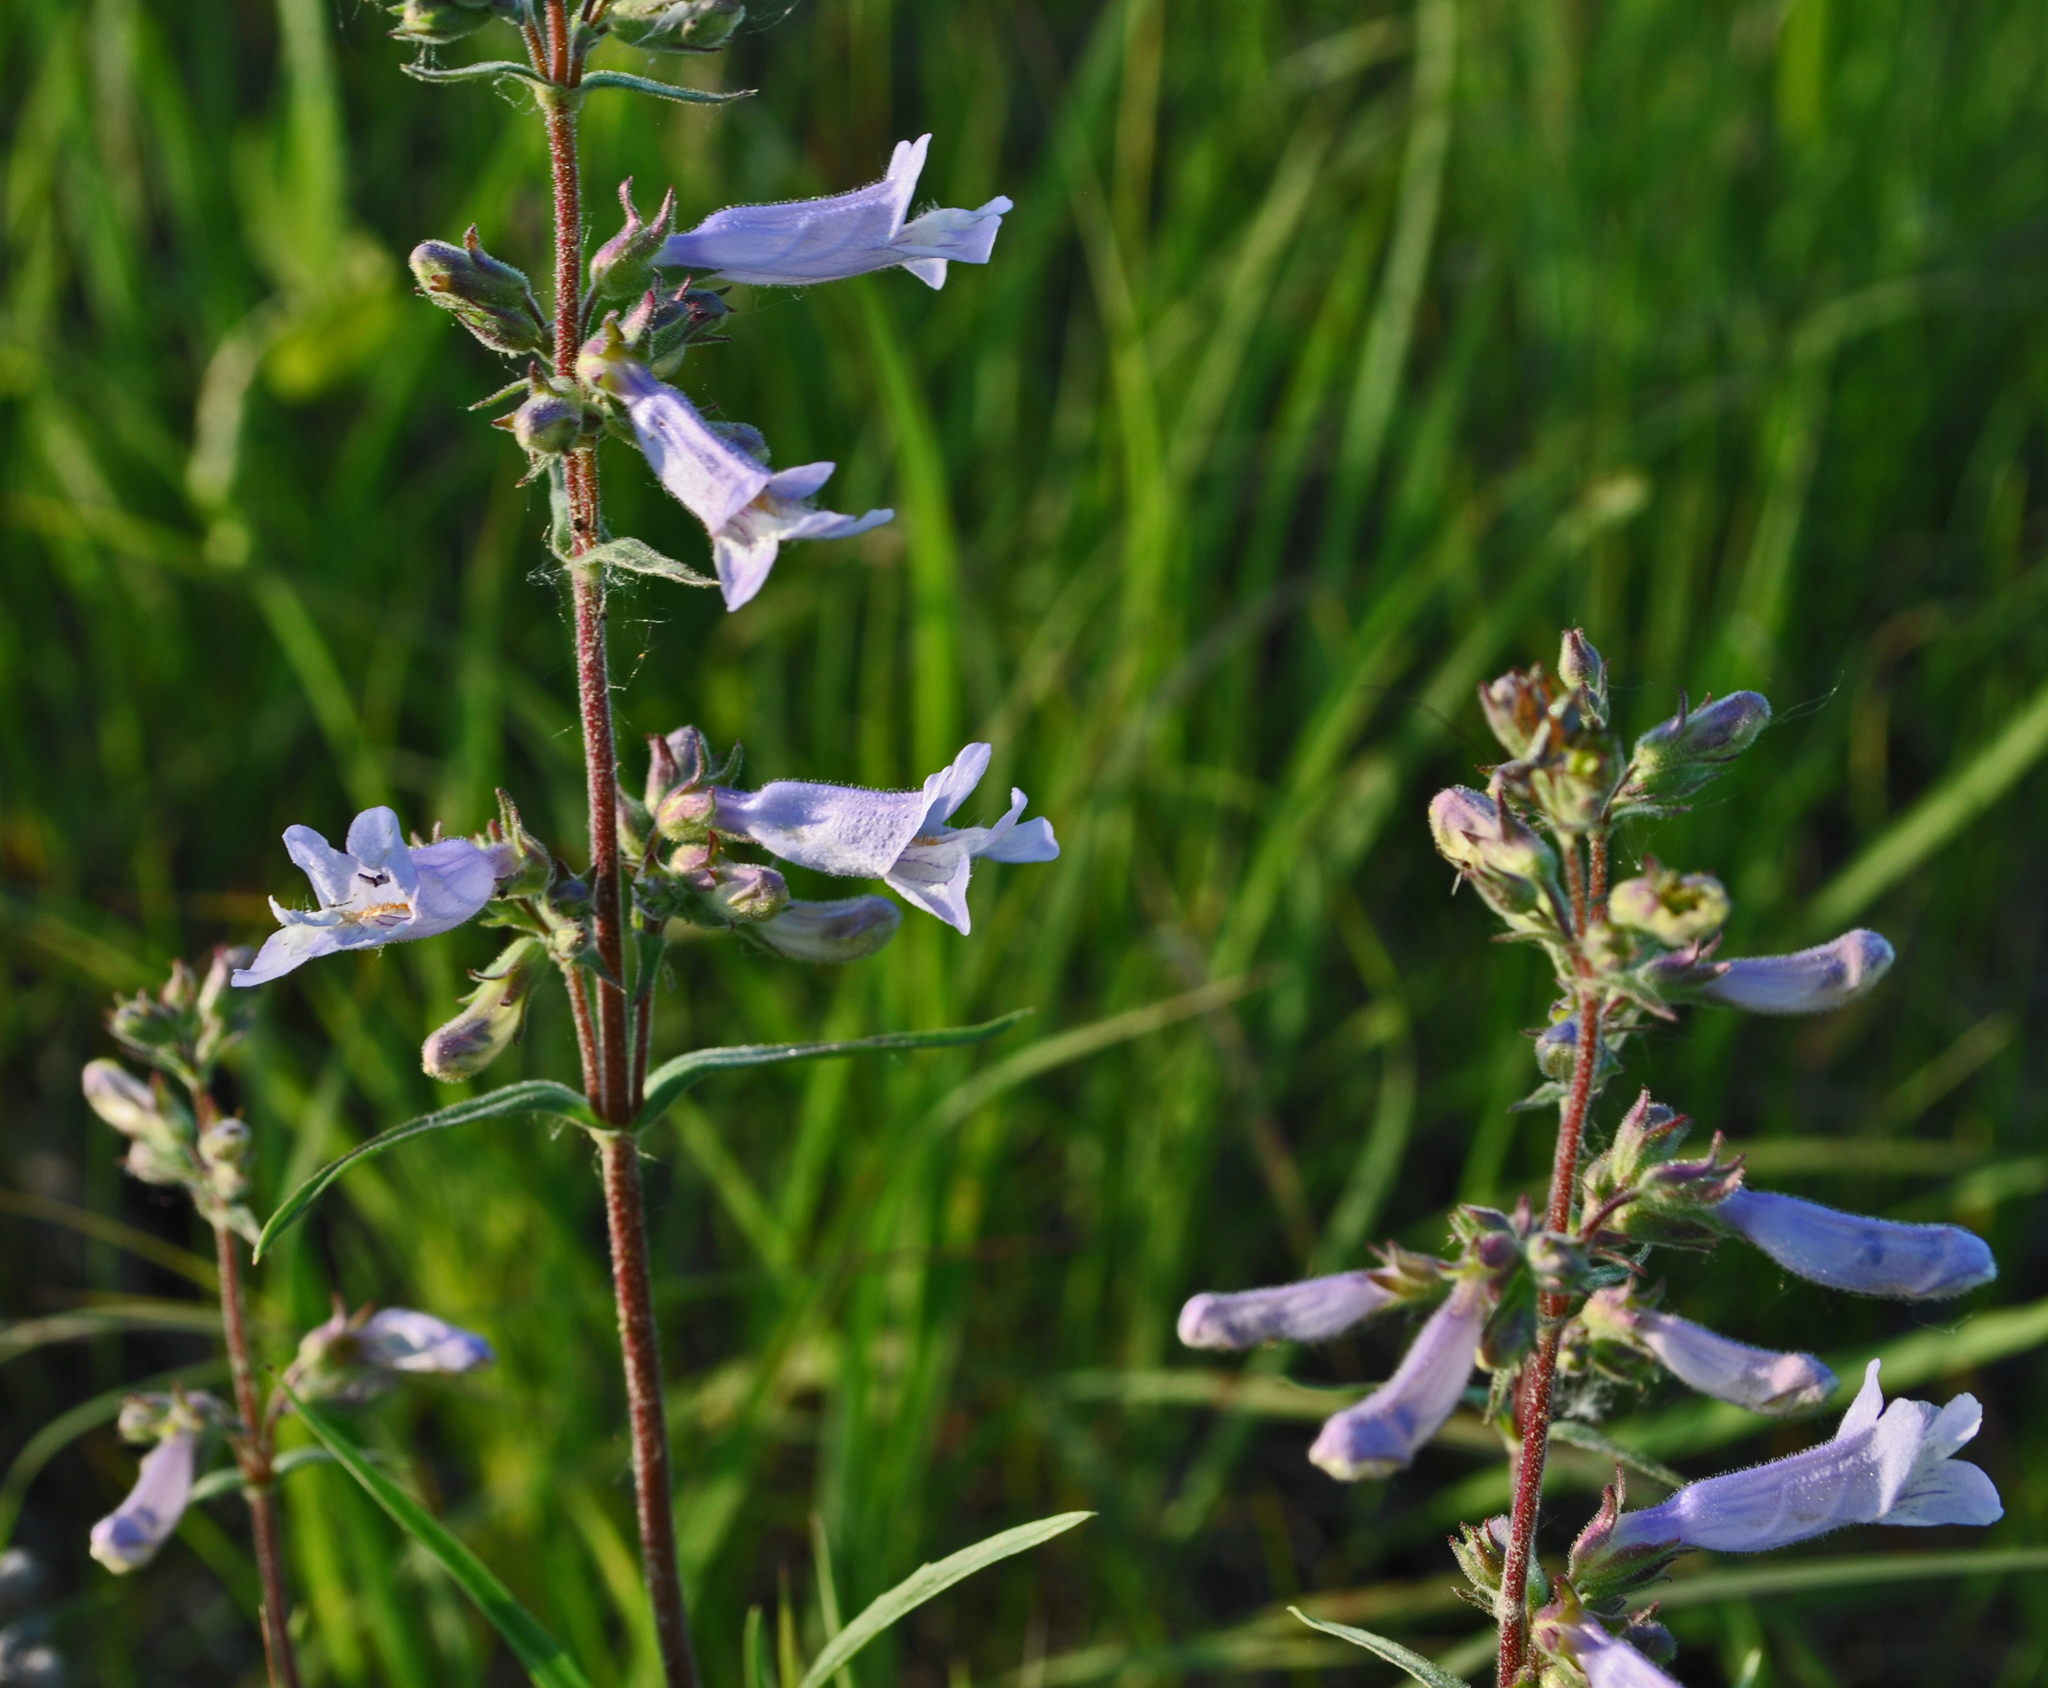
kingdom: Plantae
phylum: Tracheophyta
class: Magnoliopsida
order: Lamiales
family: Plantaginaceae
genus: Penstemon
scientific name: Penstemon gracilis
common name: Slender beardtongue
